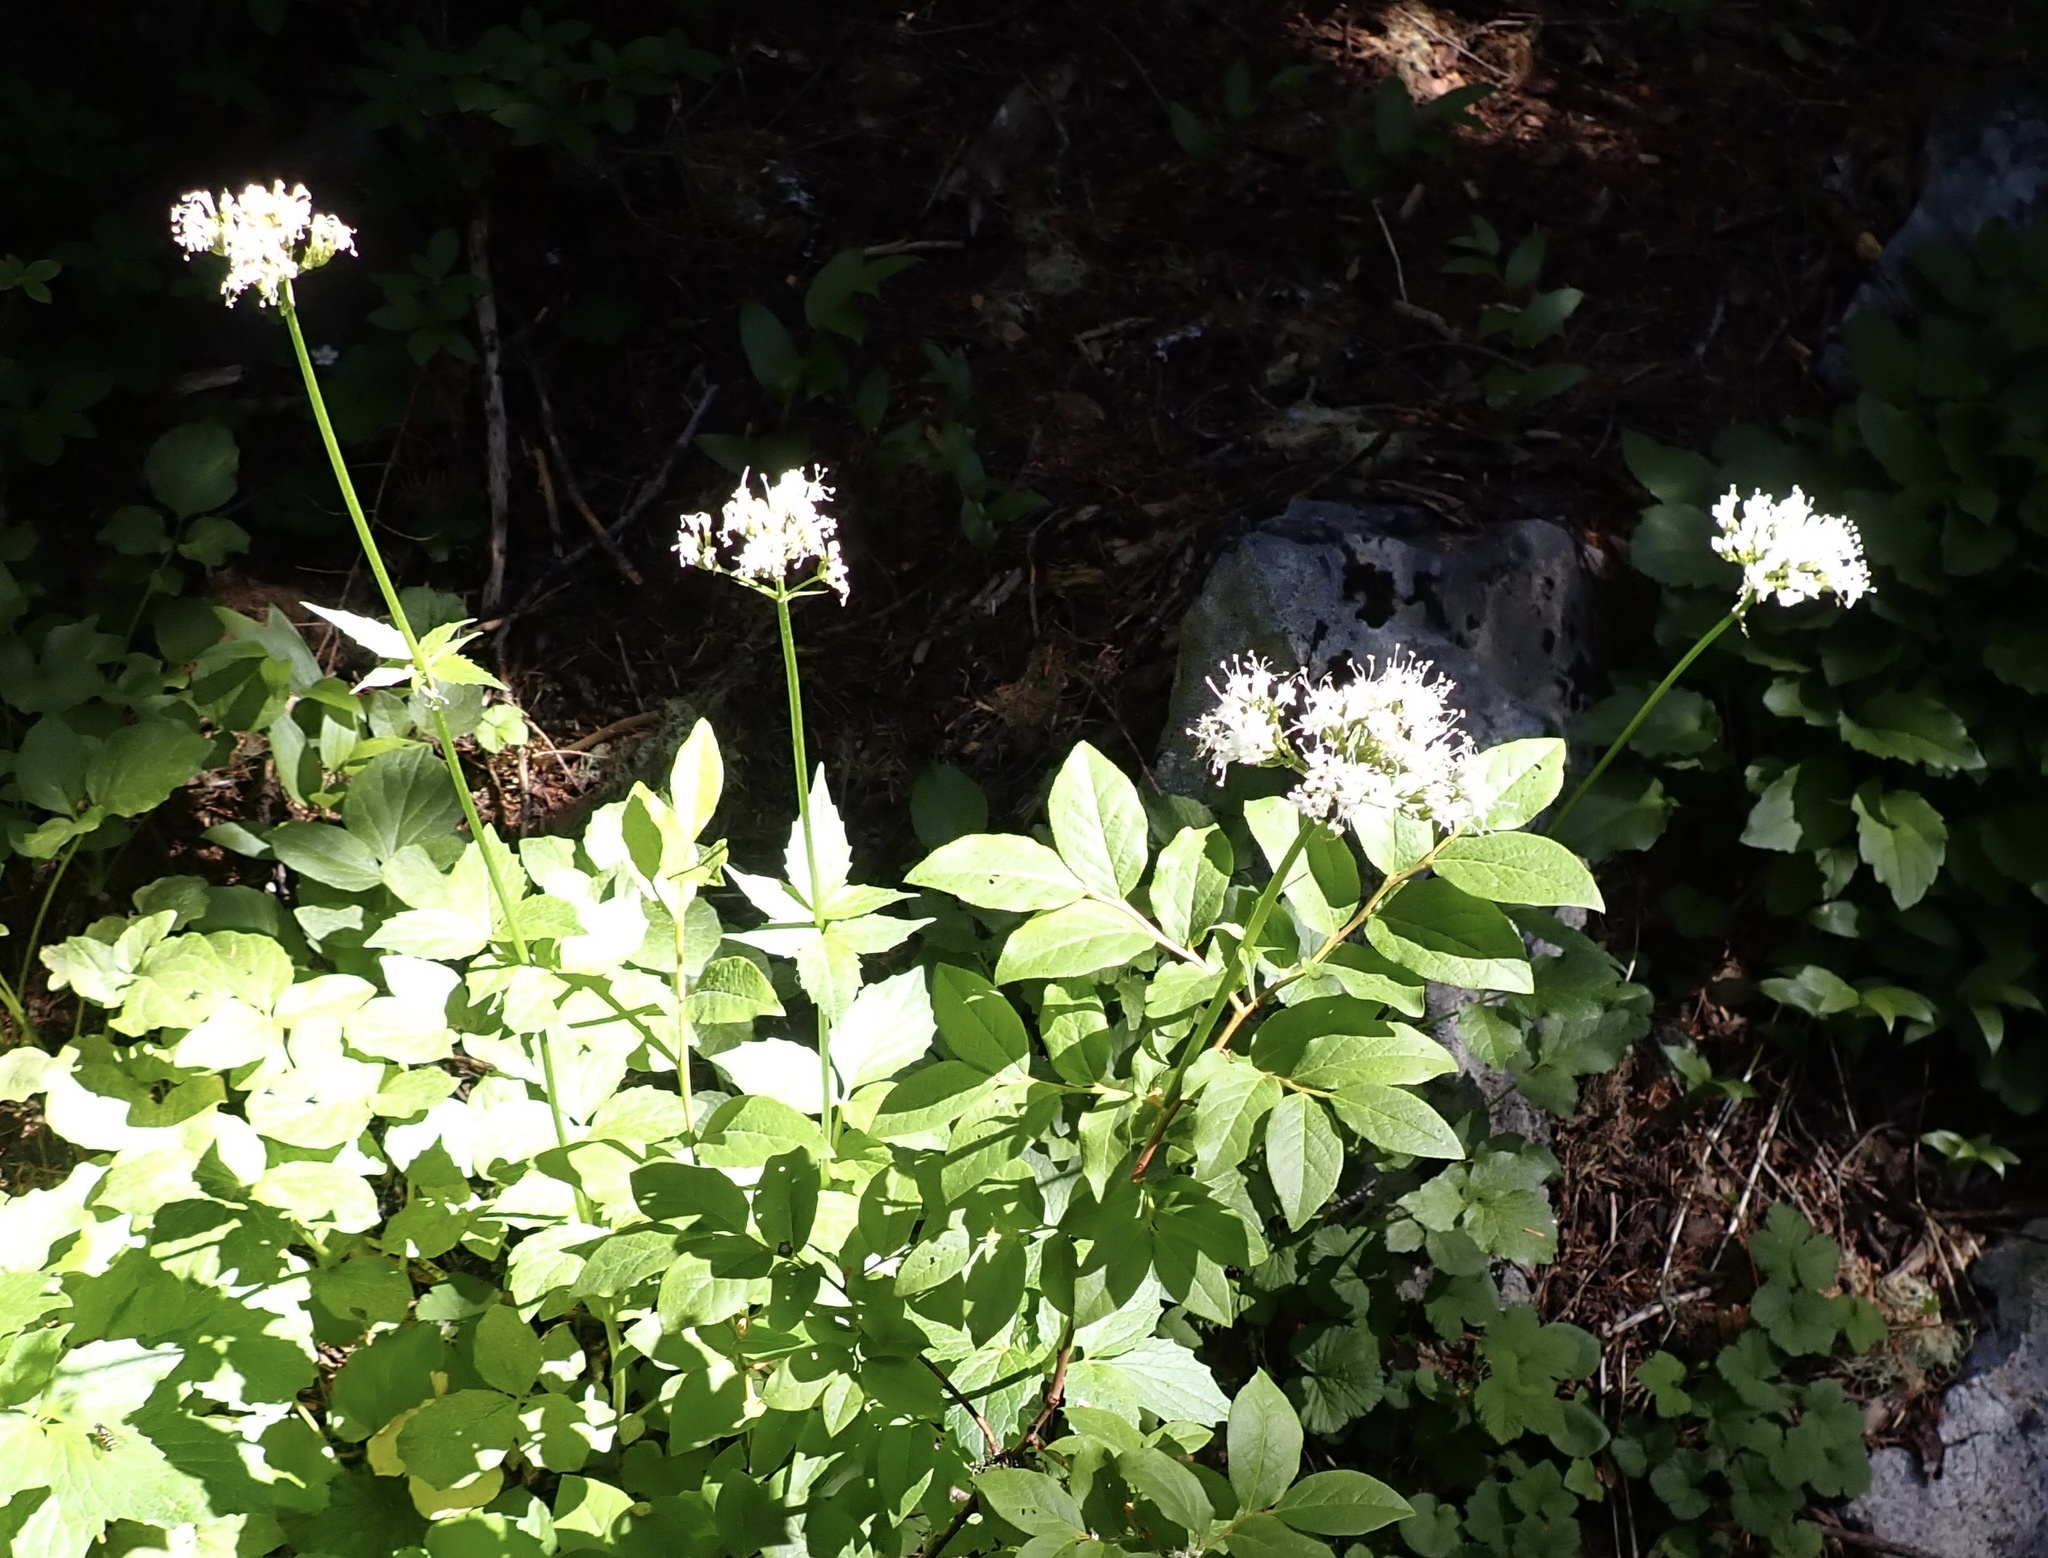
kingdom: Plantae
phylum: Tracheophyta
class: Magnoliopsida
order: Dipsacales
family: Caprifoliaceae
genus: Valeriana
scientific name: Valeriana sitchensis
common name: Pacific valerian
